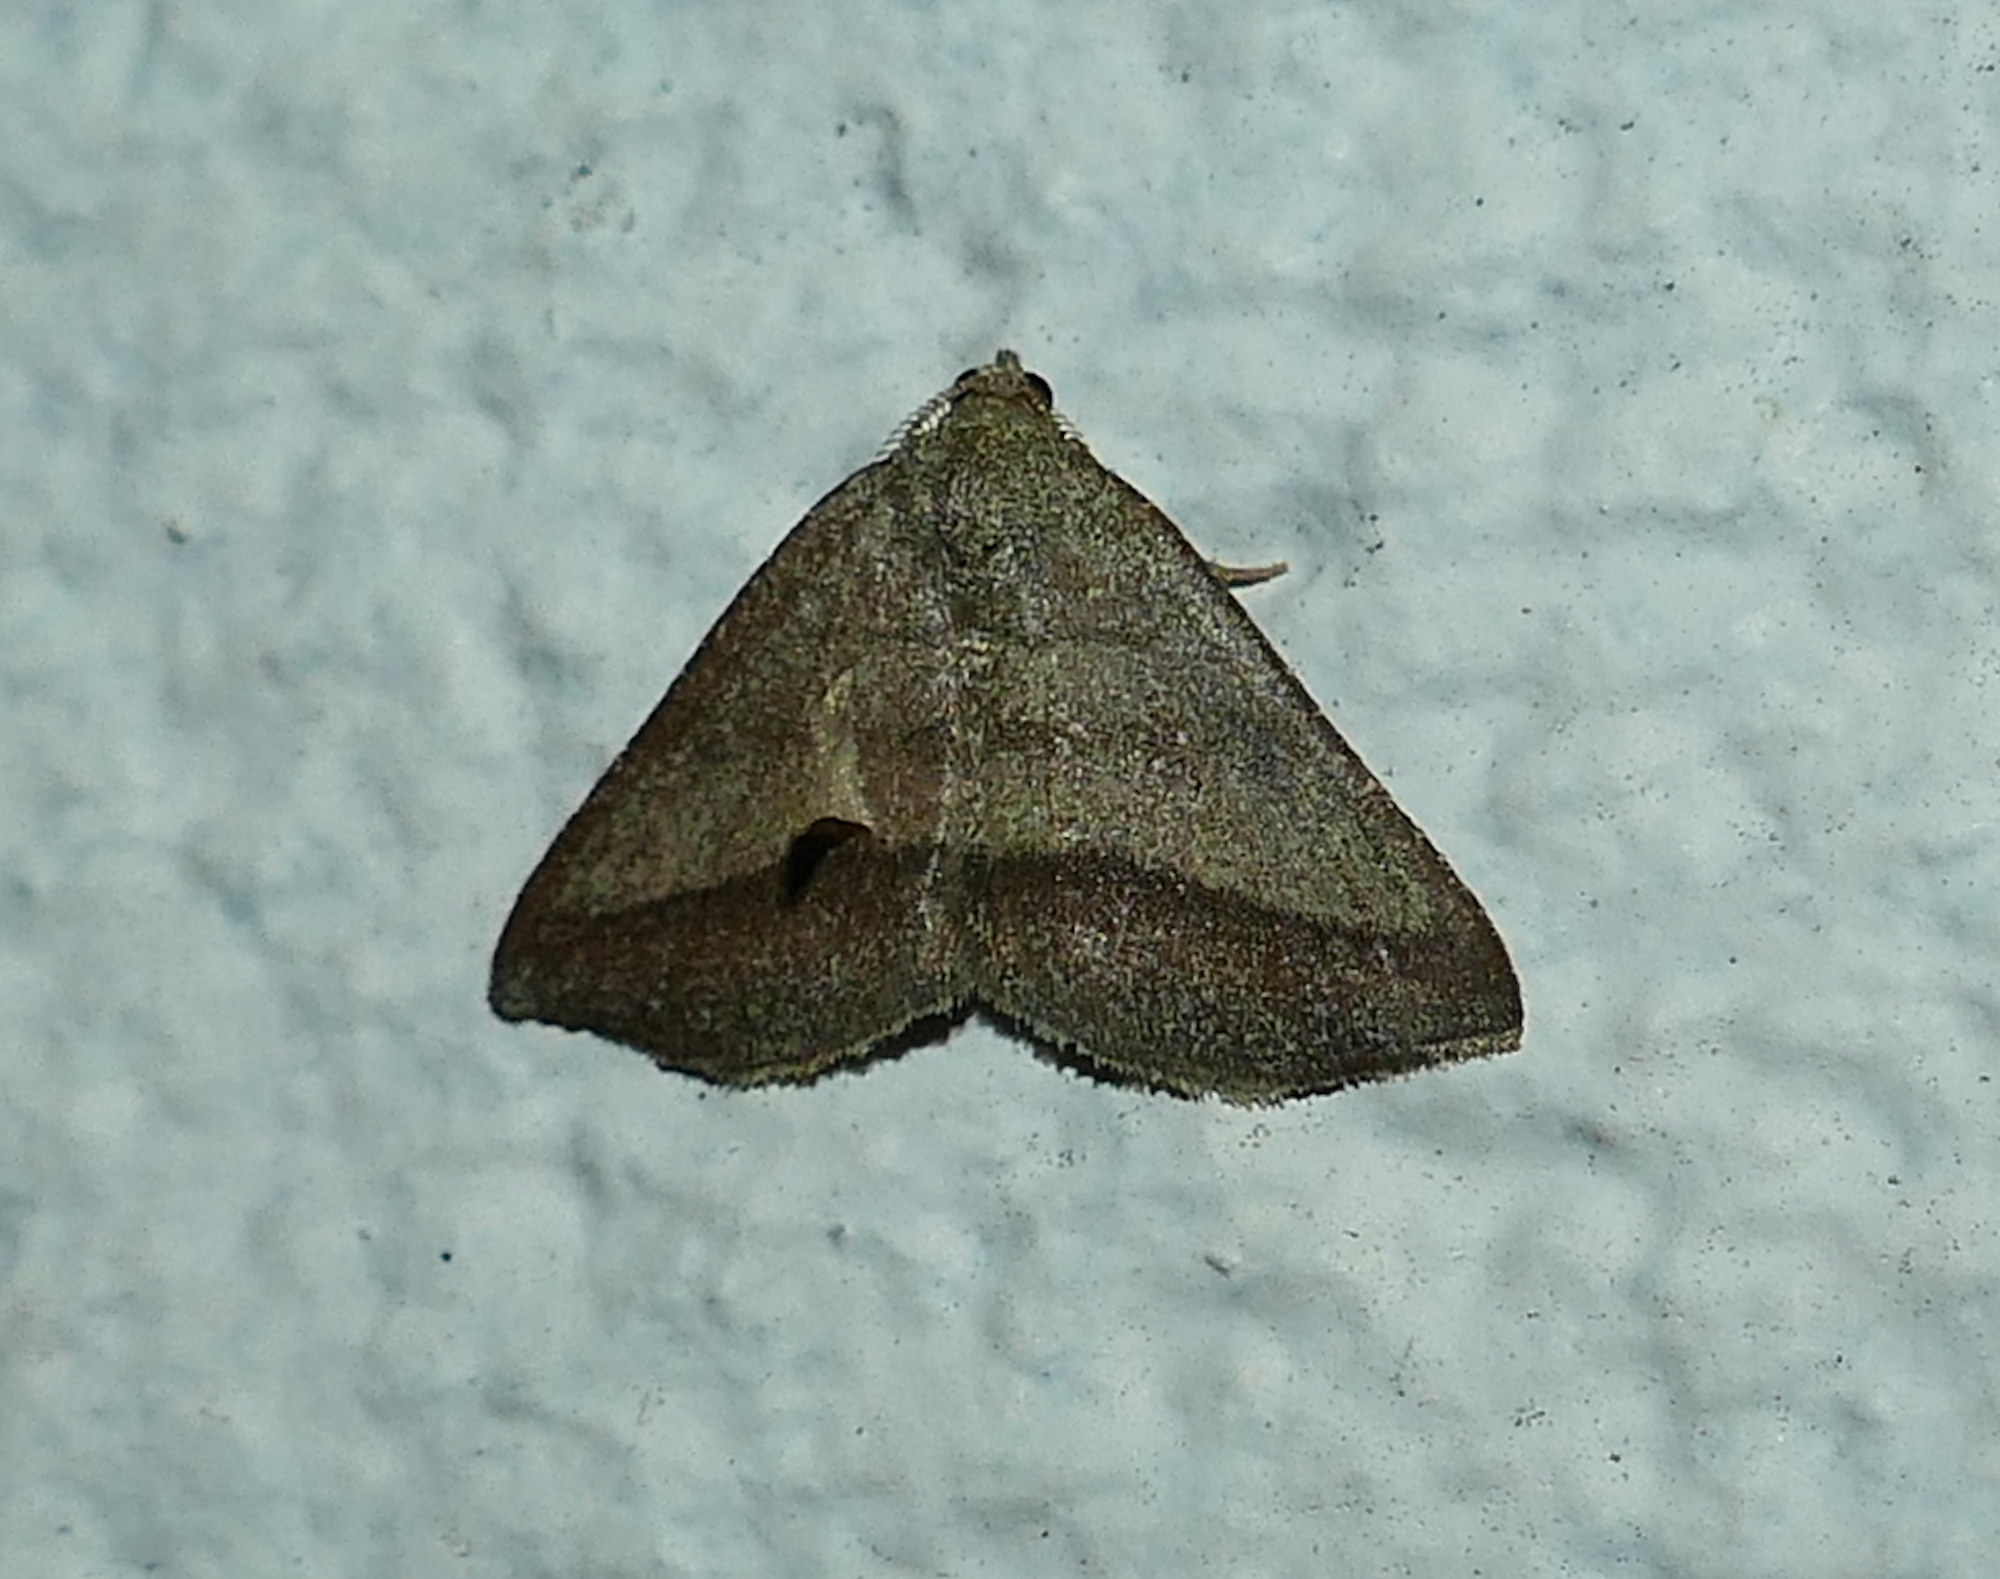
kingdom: Animalia
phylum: Arthropoda
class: Insecta
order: Lepidoptera
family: Geometridae
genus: Macaria
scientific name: Macaria varadaria
